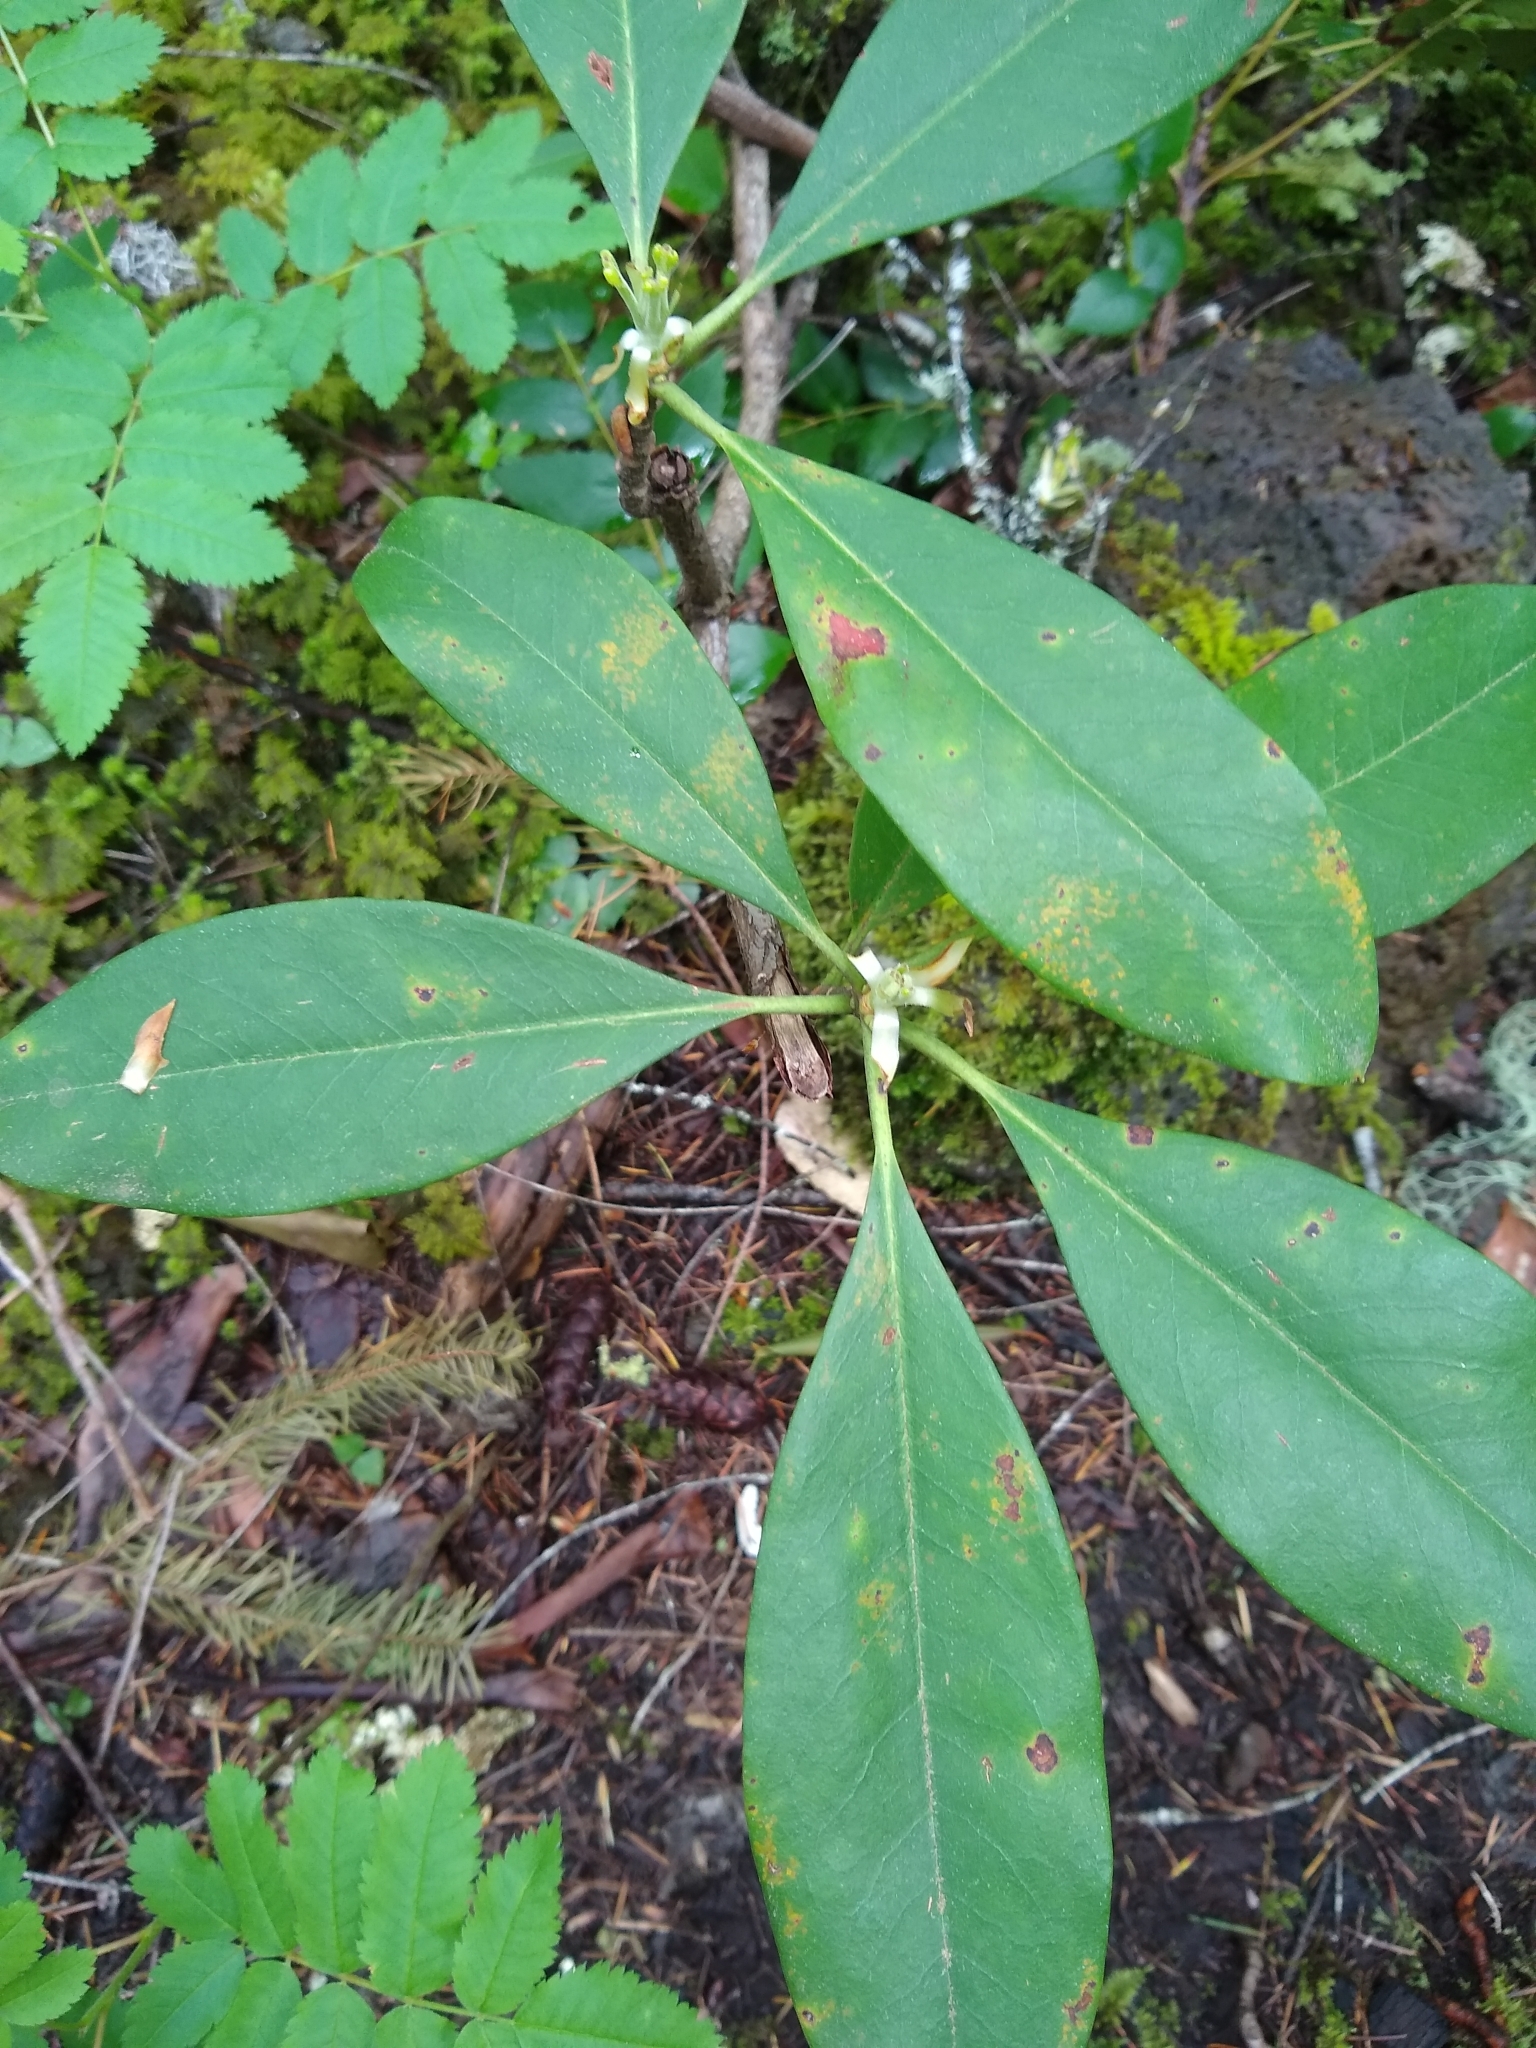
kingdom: Plantae
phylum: Tracheophyta
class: Magnoliopsida
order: Ericales
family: Ericaceae
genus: Rhododendron
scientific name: Rhododendron macrophyllum
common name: California rose bay
